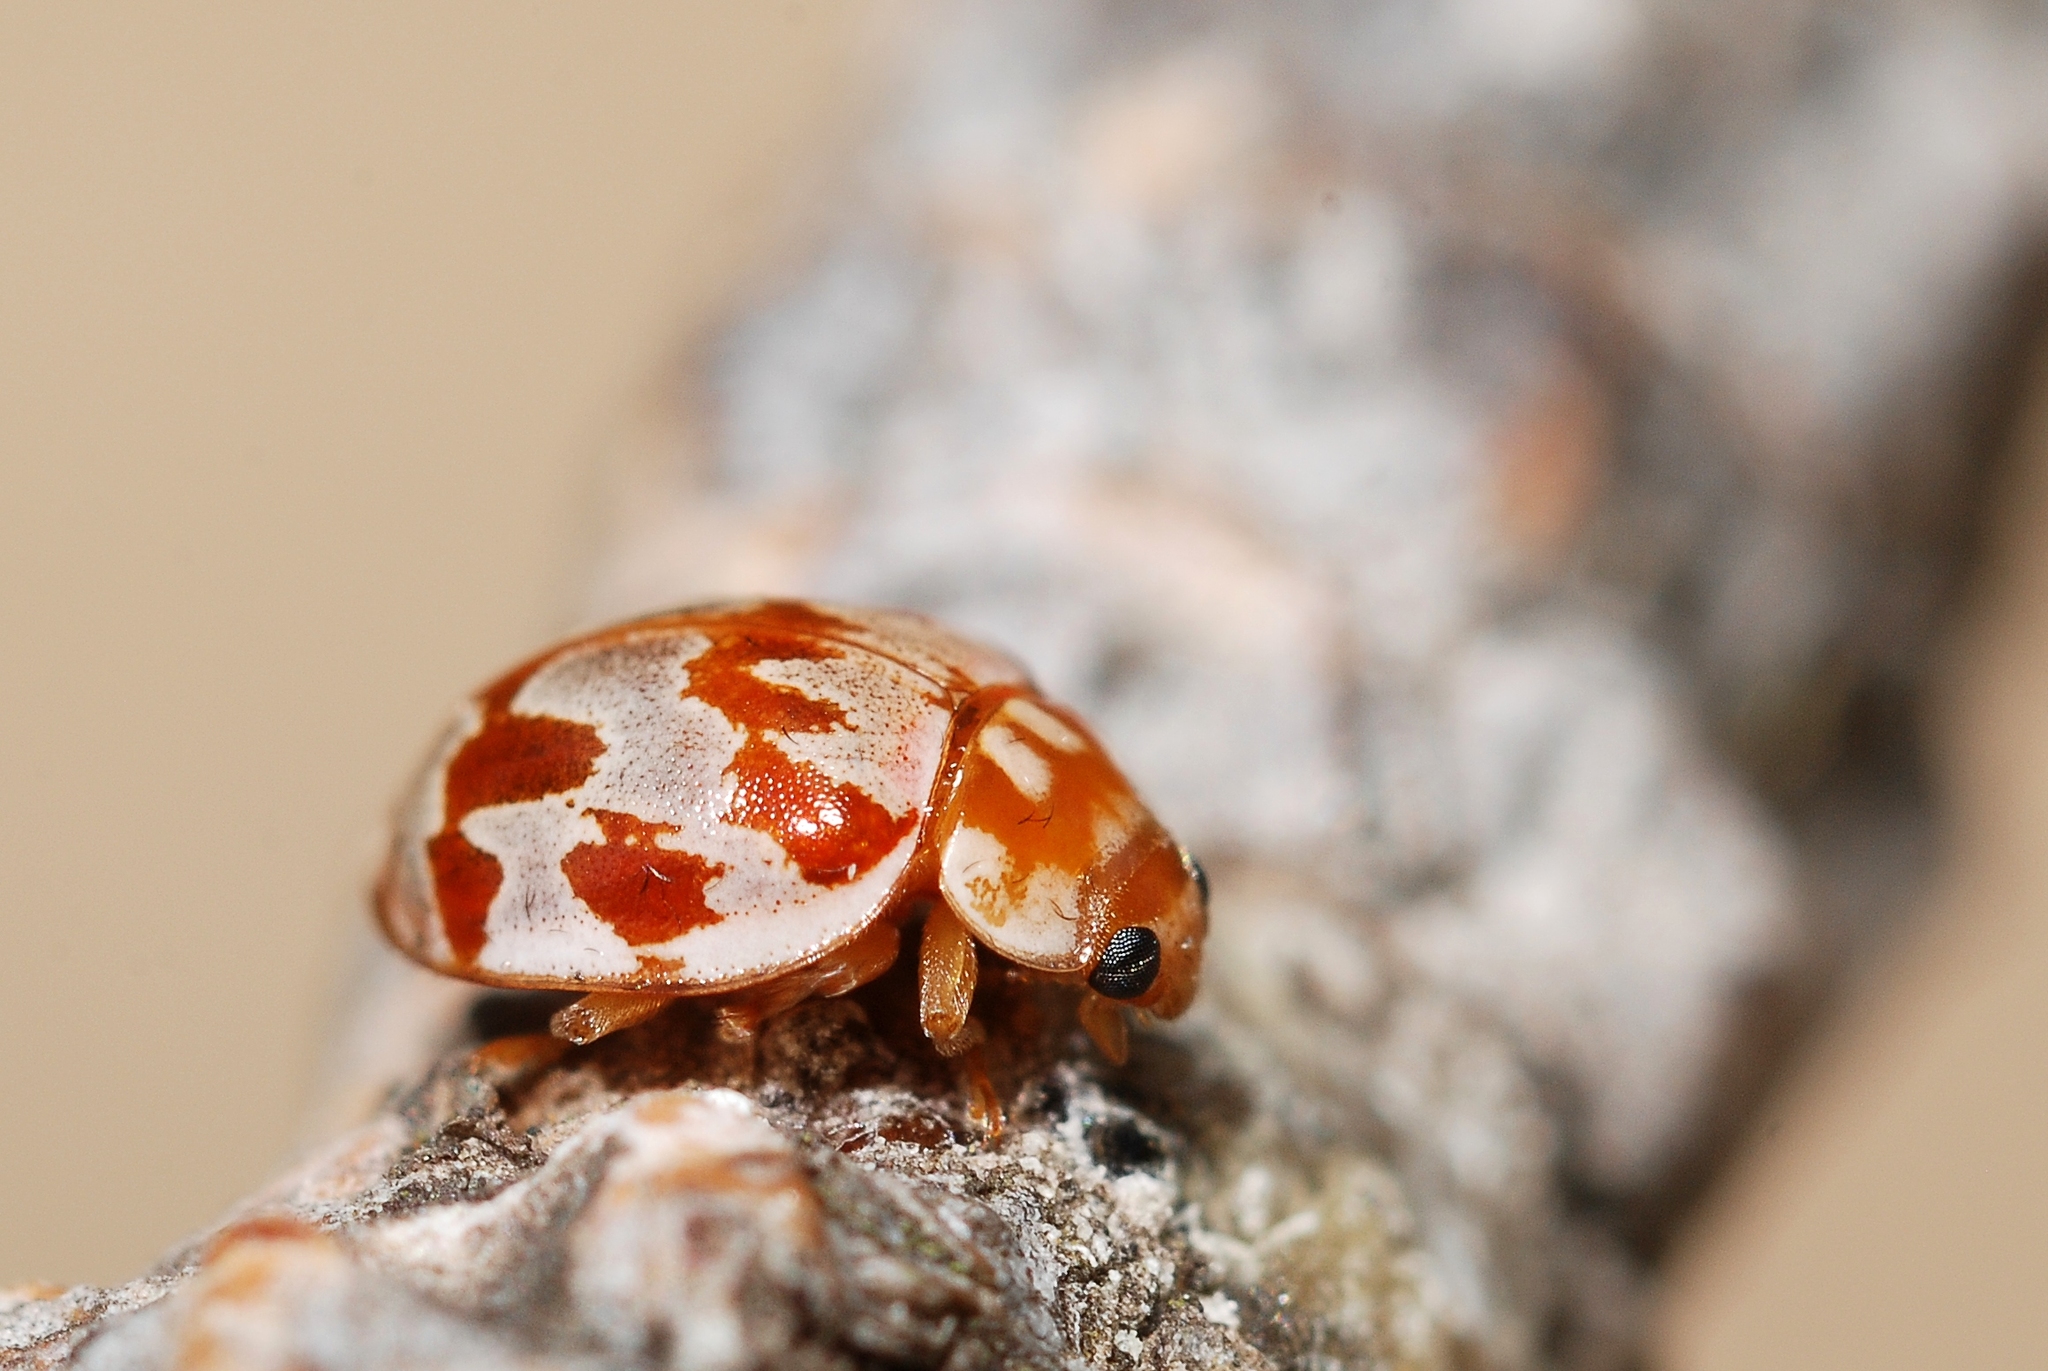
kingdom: Animalia
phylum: Arthropoda
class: Insecta
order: Coleoptera
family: Coccinellidae
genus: Myrrha
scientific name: Myrrha octodecimguttata
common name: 18-spot ladybird
